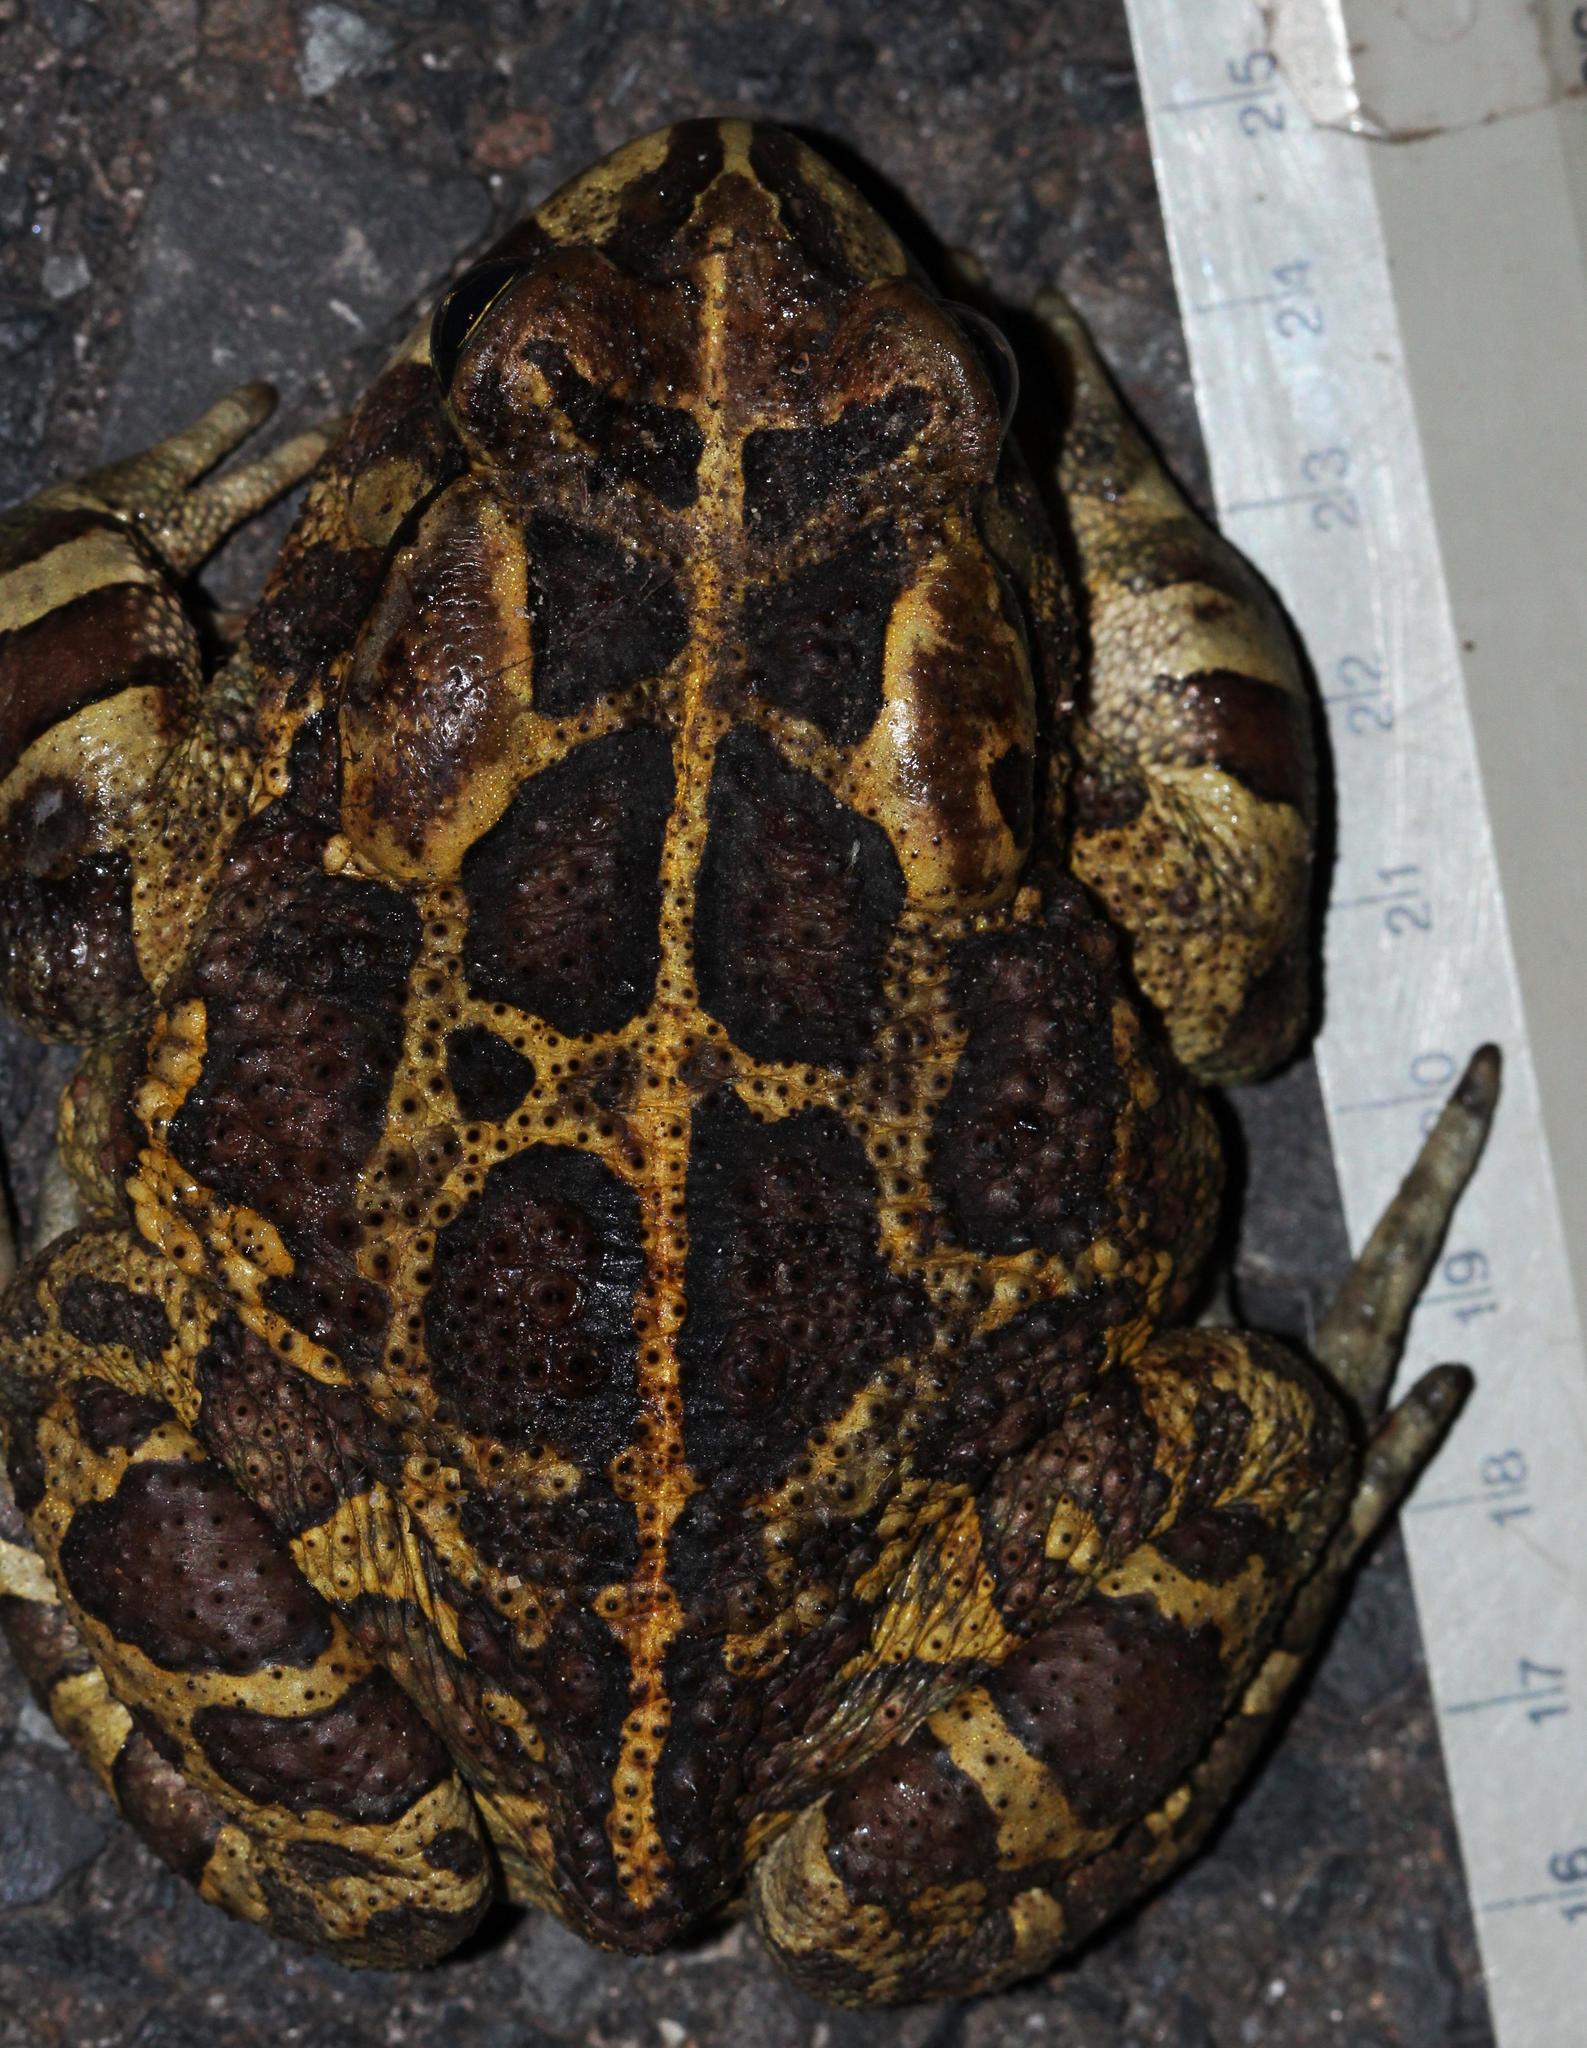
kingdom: Animalia
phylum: Chordata
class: Amphibia
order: Anura
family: Bufonidae
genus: Sclerophrys
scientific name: Sclerophrys pantherina
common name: Panther toad
